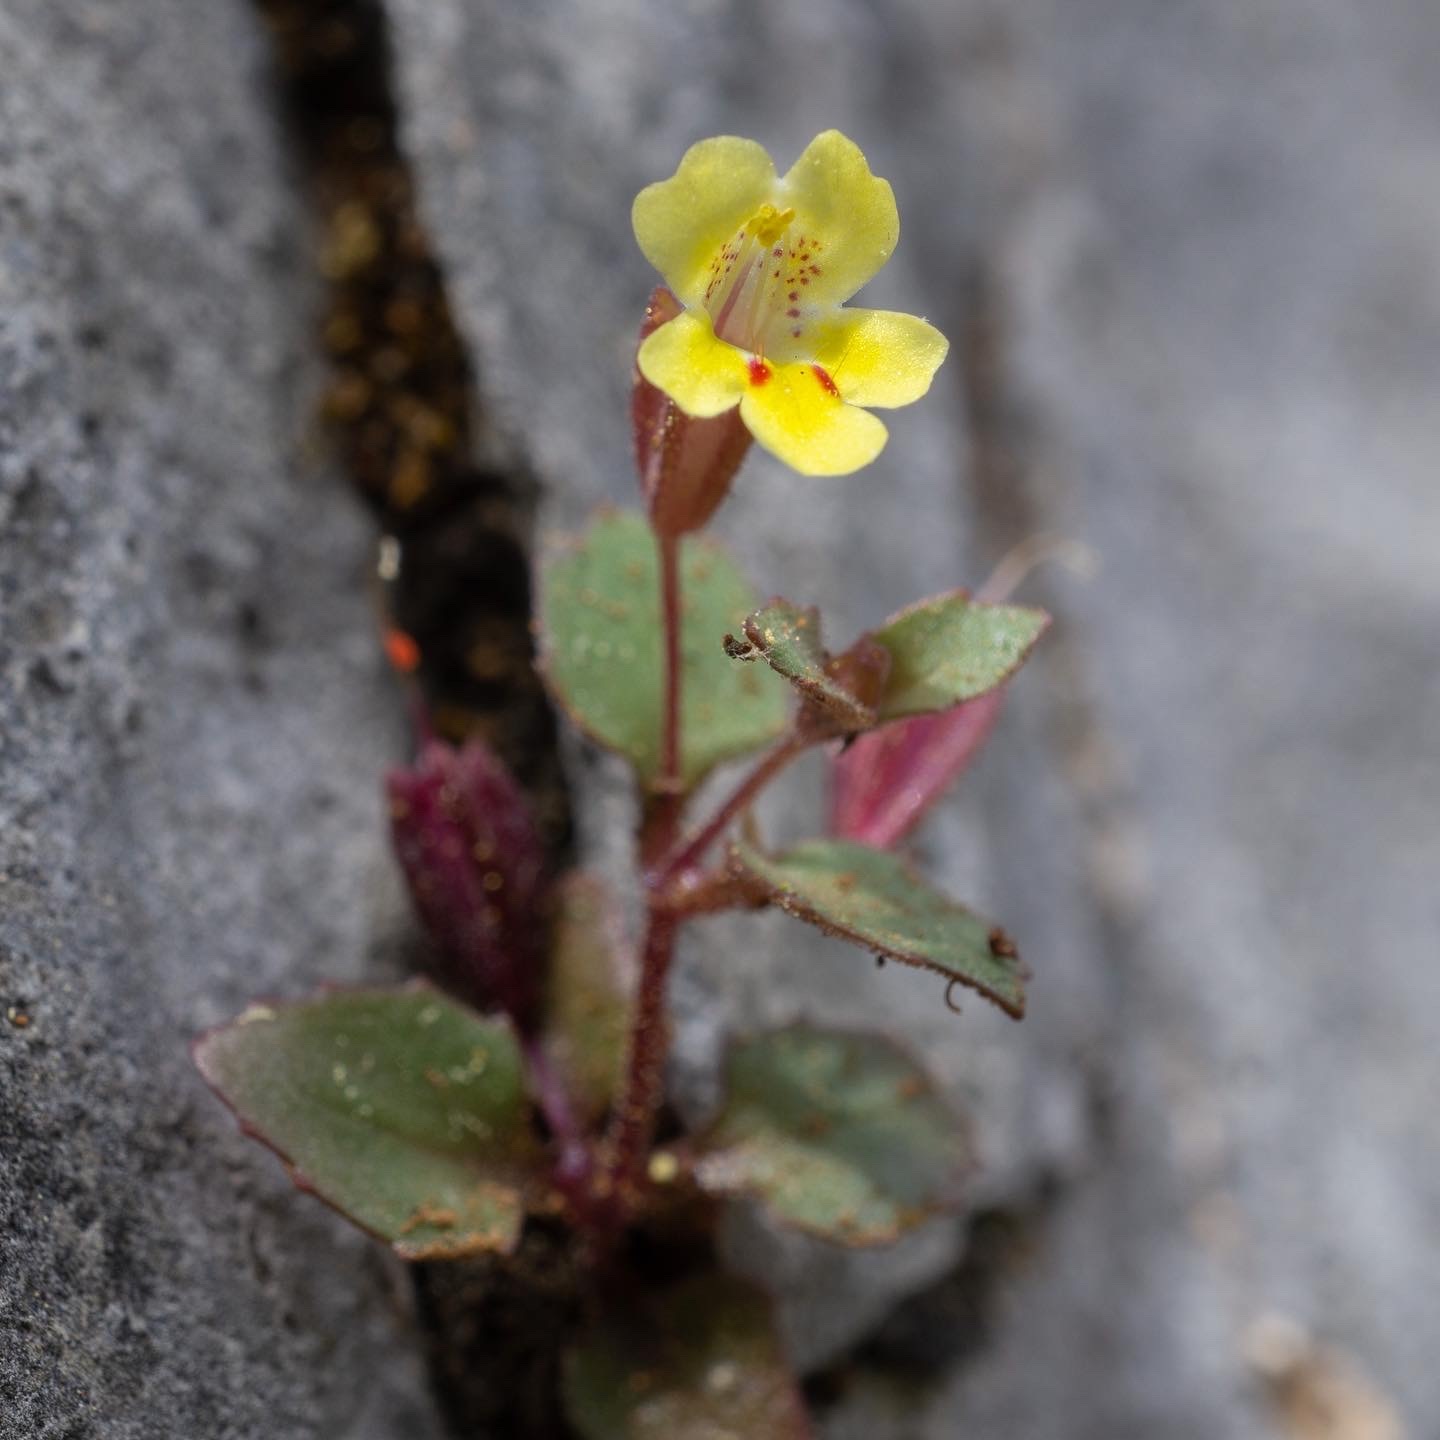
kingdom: Plantae
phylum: Tracheophyta
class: Magnoliopsida
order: Lamiales
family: Phrymaceae
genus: Erythranthe
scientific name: Erythranthe taylorii
